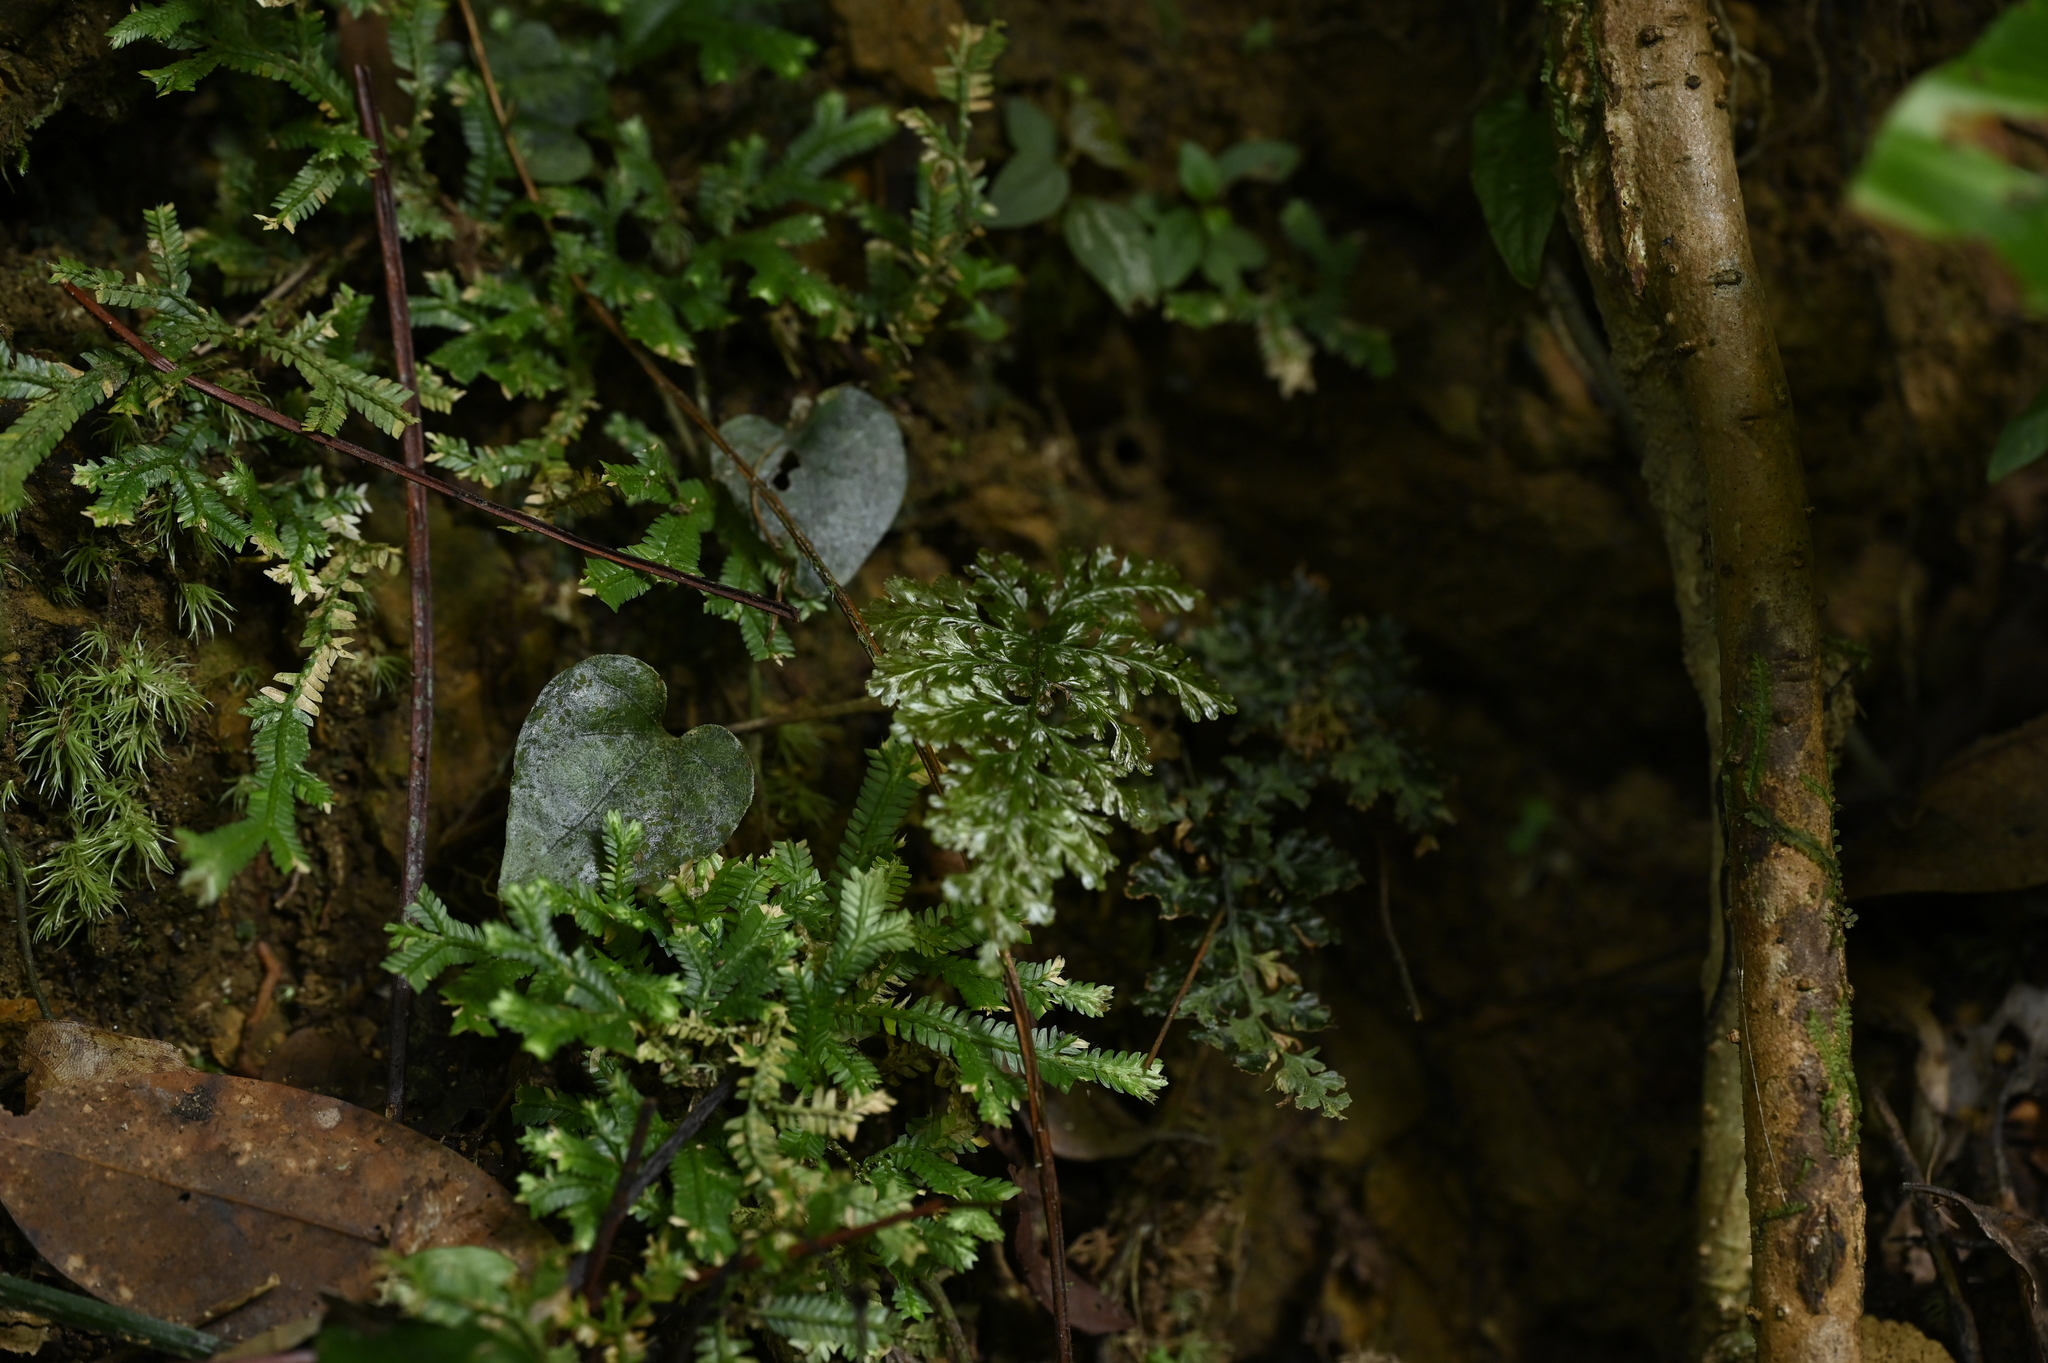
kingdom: Plantae
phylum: Tracheophyta
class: Polypodiopsida
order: Hymenophyllales
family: Hymenophyllaceae
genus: Abrodictyum
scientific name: Abrodictyum obscurum
